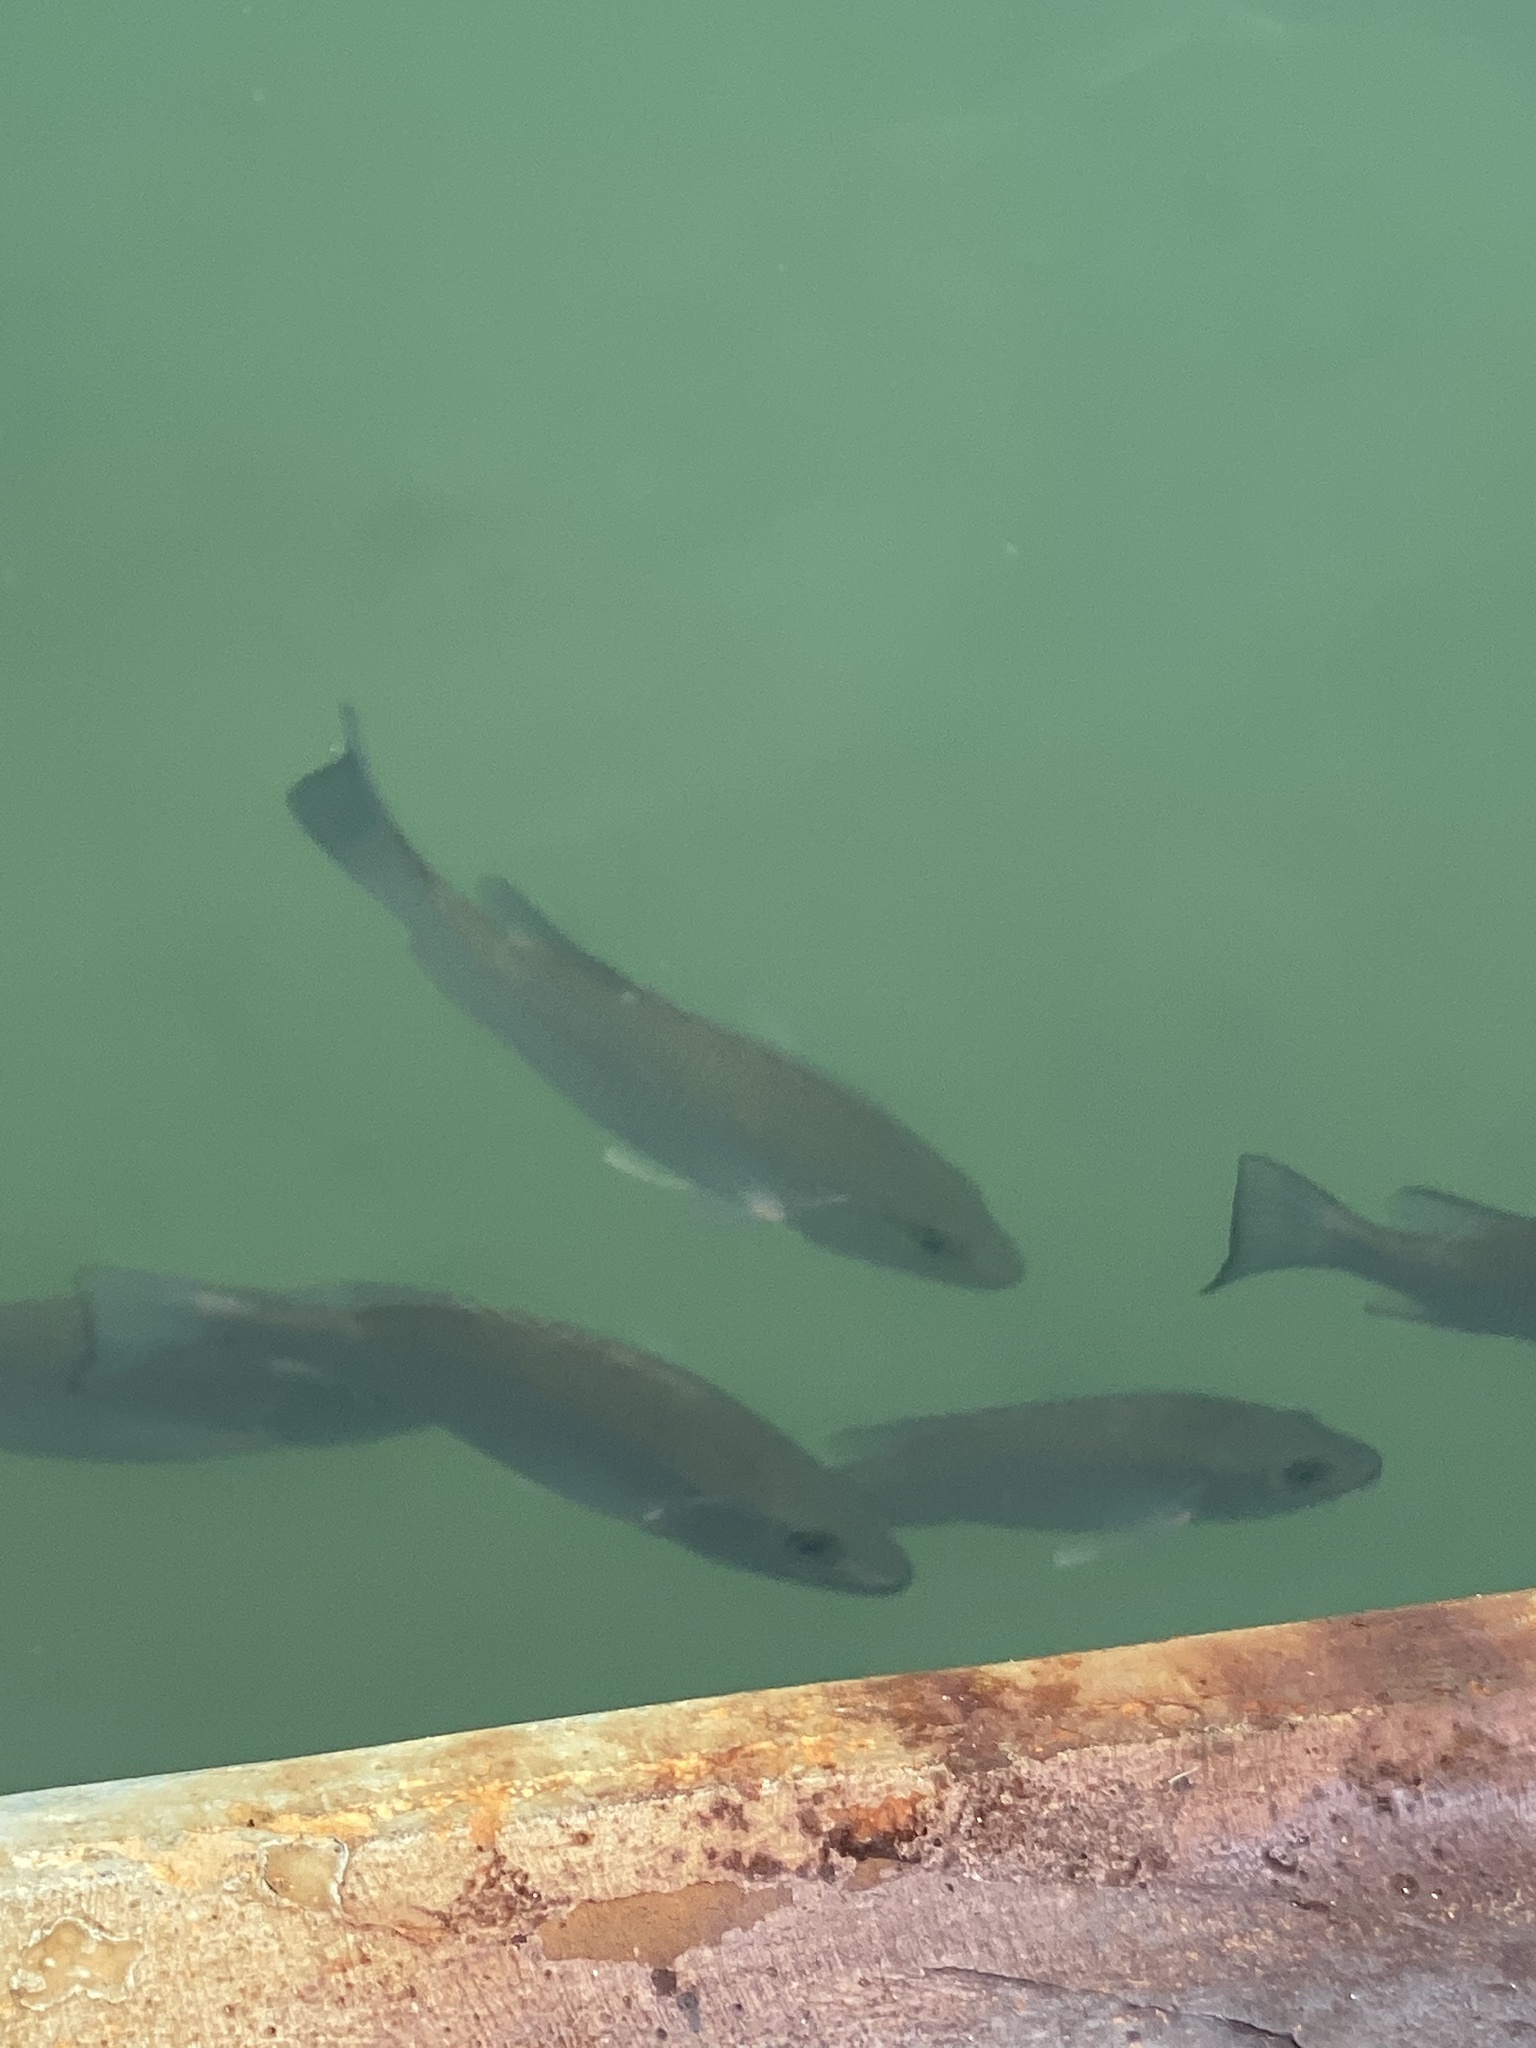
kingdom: Animalia
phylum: Chordata
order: Perciformes
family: Lutjanidae
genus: Lutjanus
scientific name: Lutjanus griseus
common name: Gray snapper
